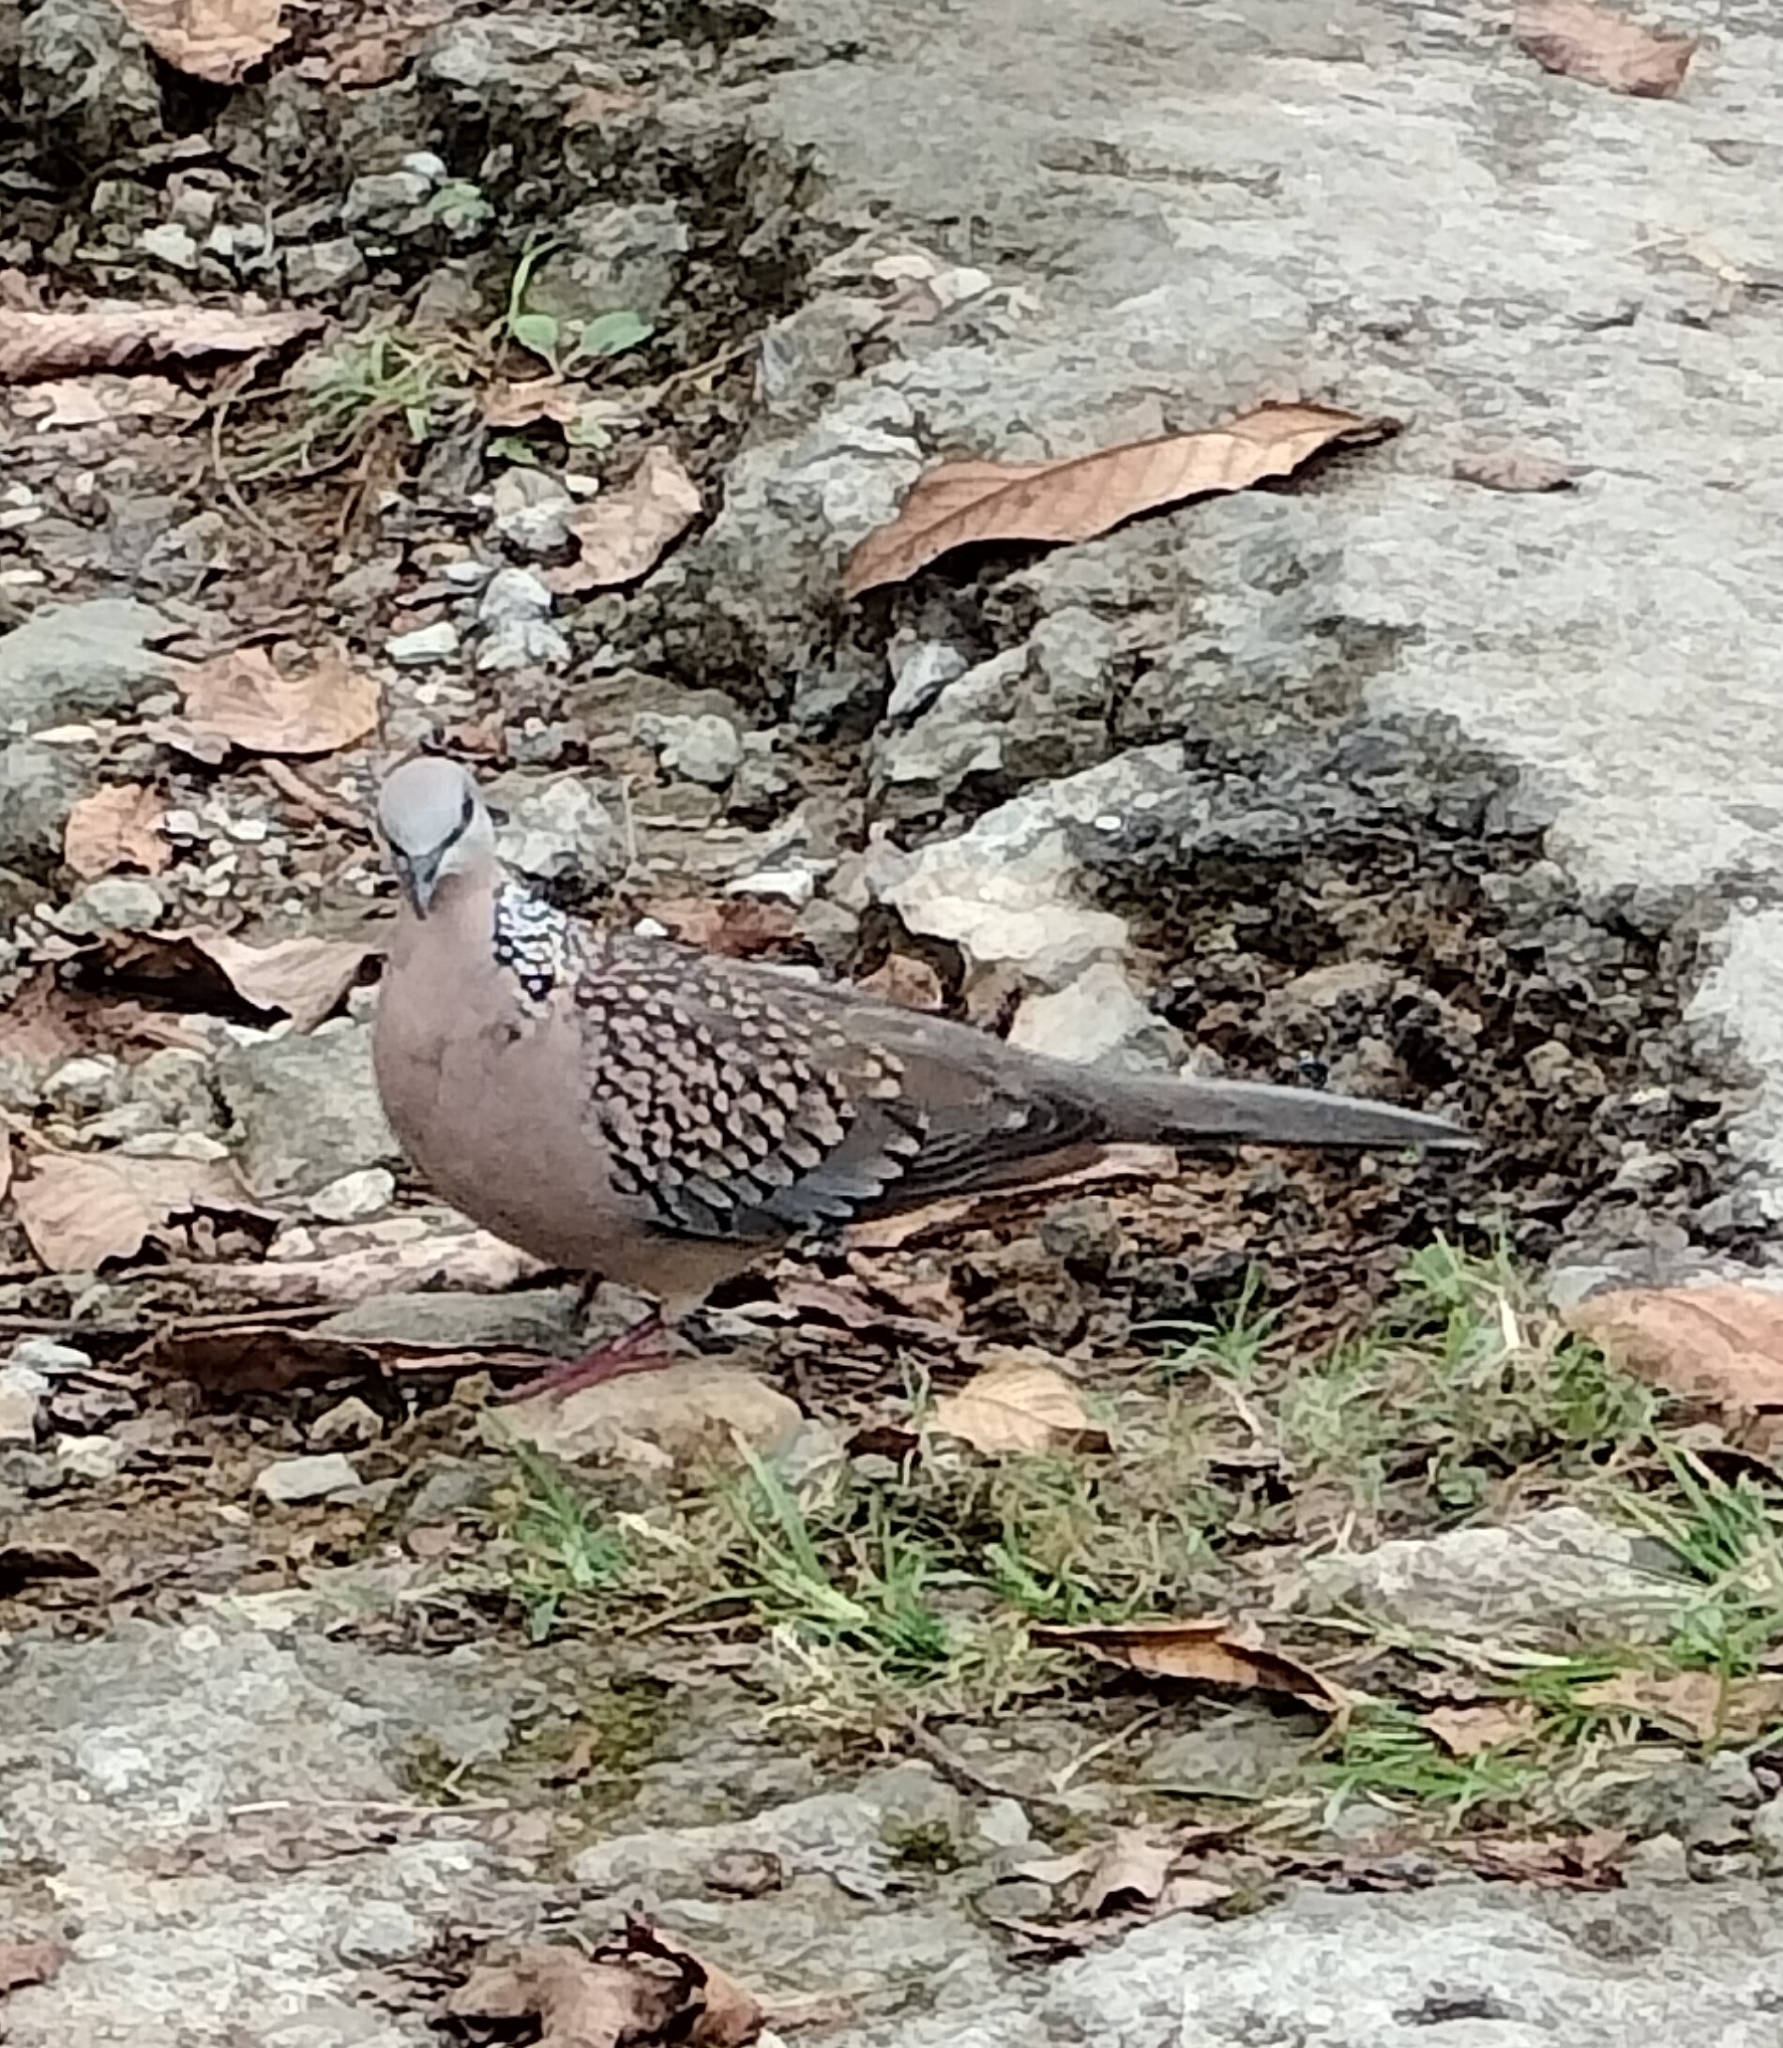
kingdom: Animalia
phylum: Chordata
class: Aves
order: Columbiformes
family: Columbidae
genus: Spilopelia
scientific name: Spilopelia chinensis
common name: Spotted dove
